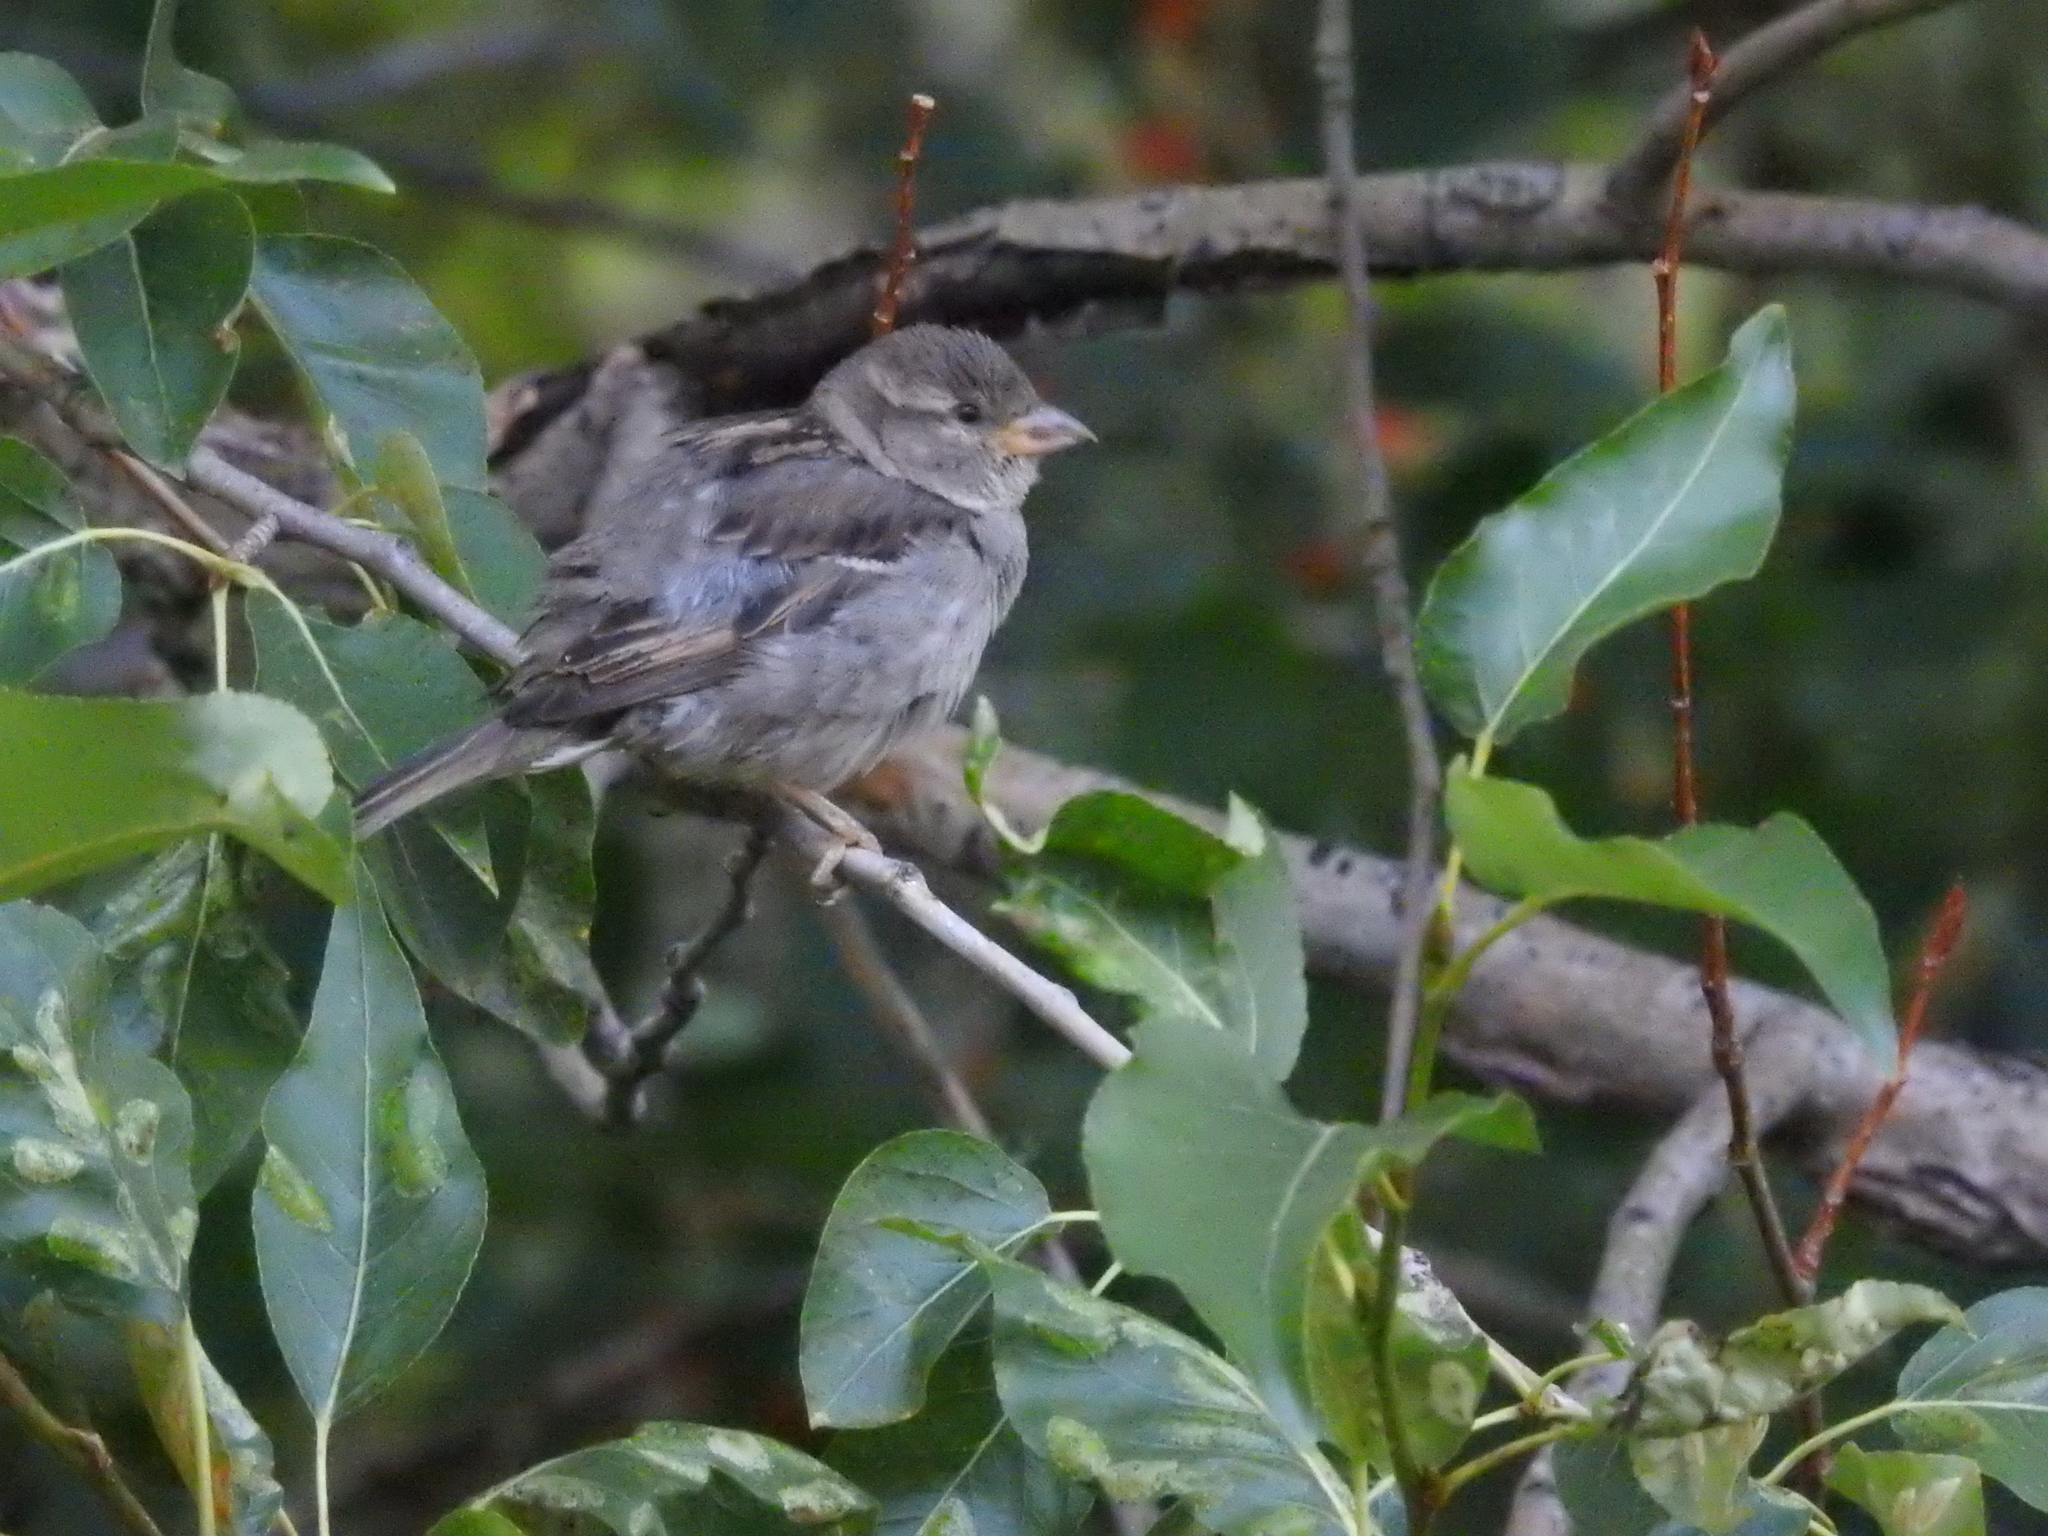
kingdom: Animalia
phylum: Chordata
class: Aves
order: Passeriformes
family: Passeridae
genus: Passer
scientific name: Passer domesticus
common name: House sparrow
